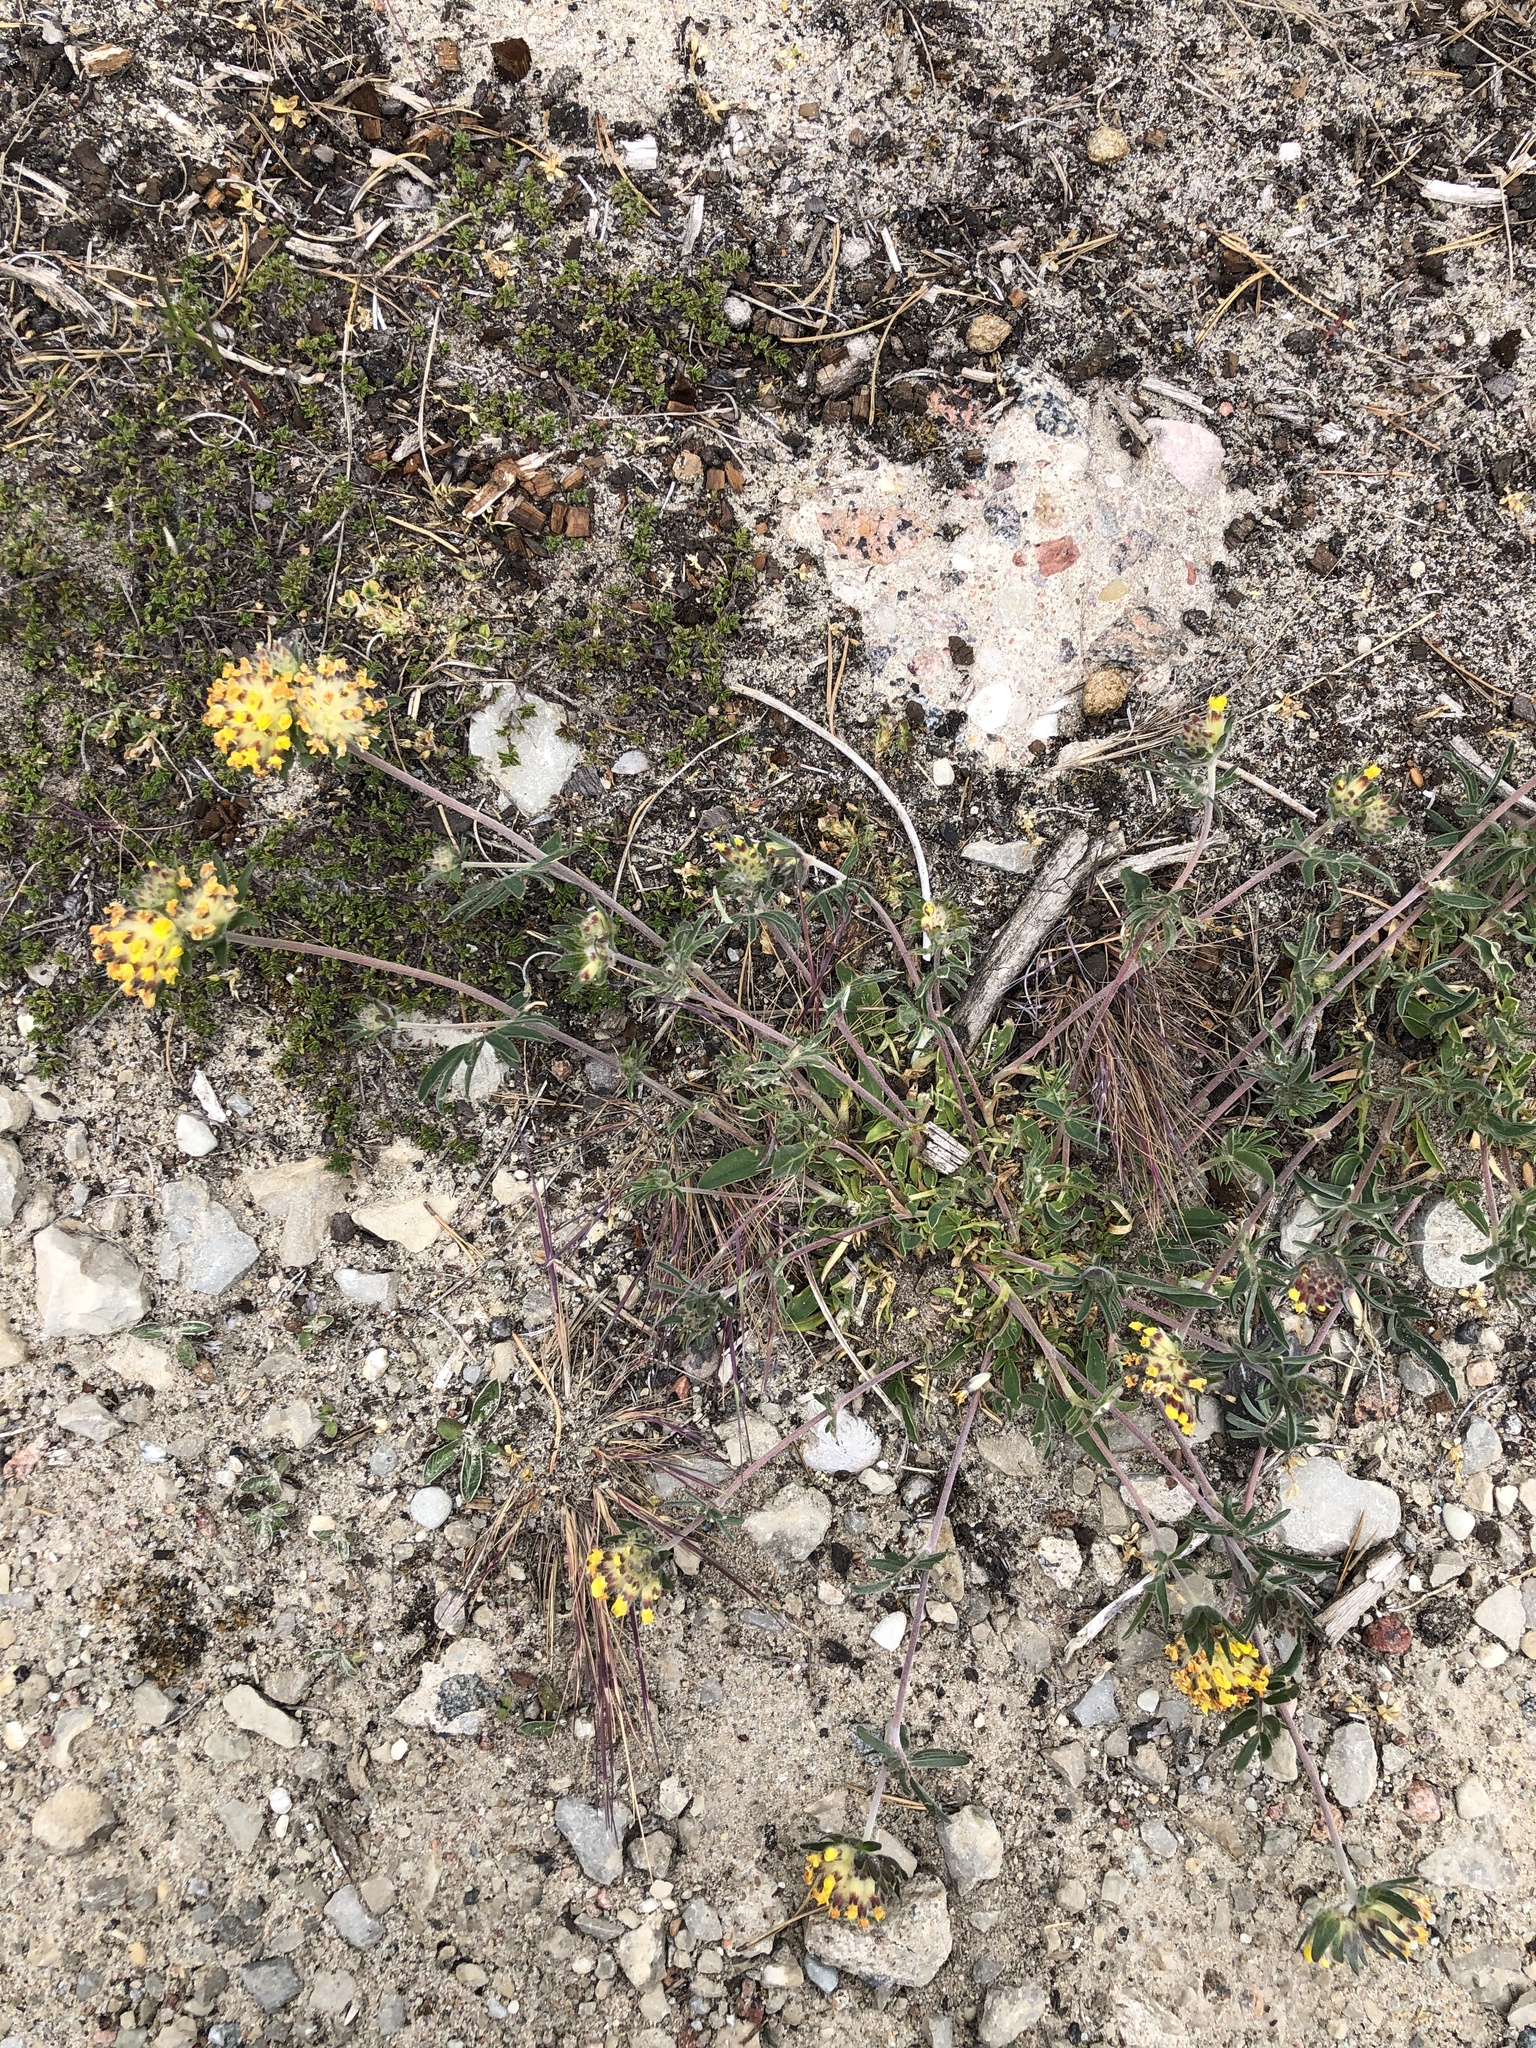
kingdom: Plantae
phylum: Tracheophyta
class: Magnoliopsida
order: Fabales
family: Fabaceae
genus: Anthyllis
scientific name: Anthyllis vulneraria
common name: Kidney vetch
